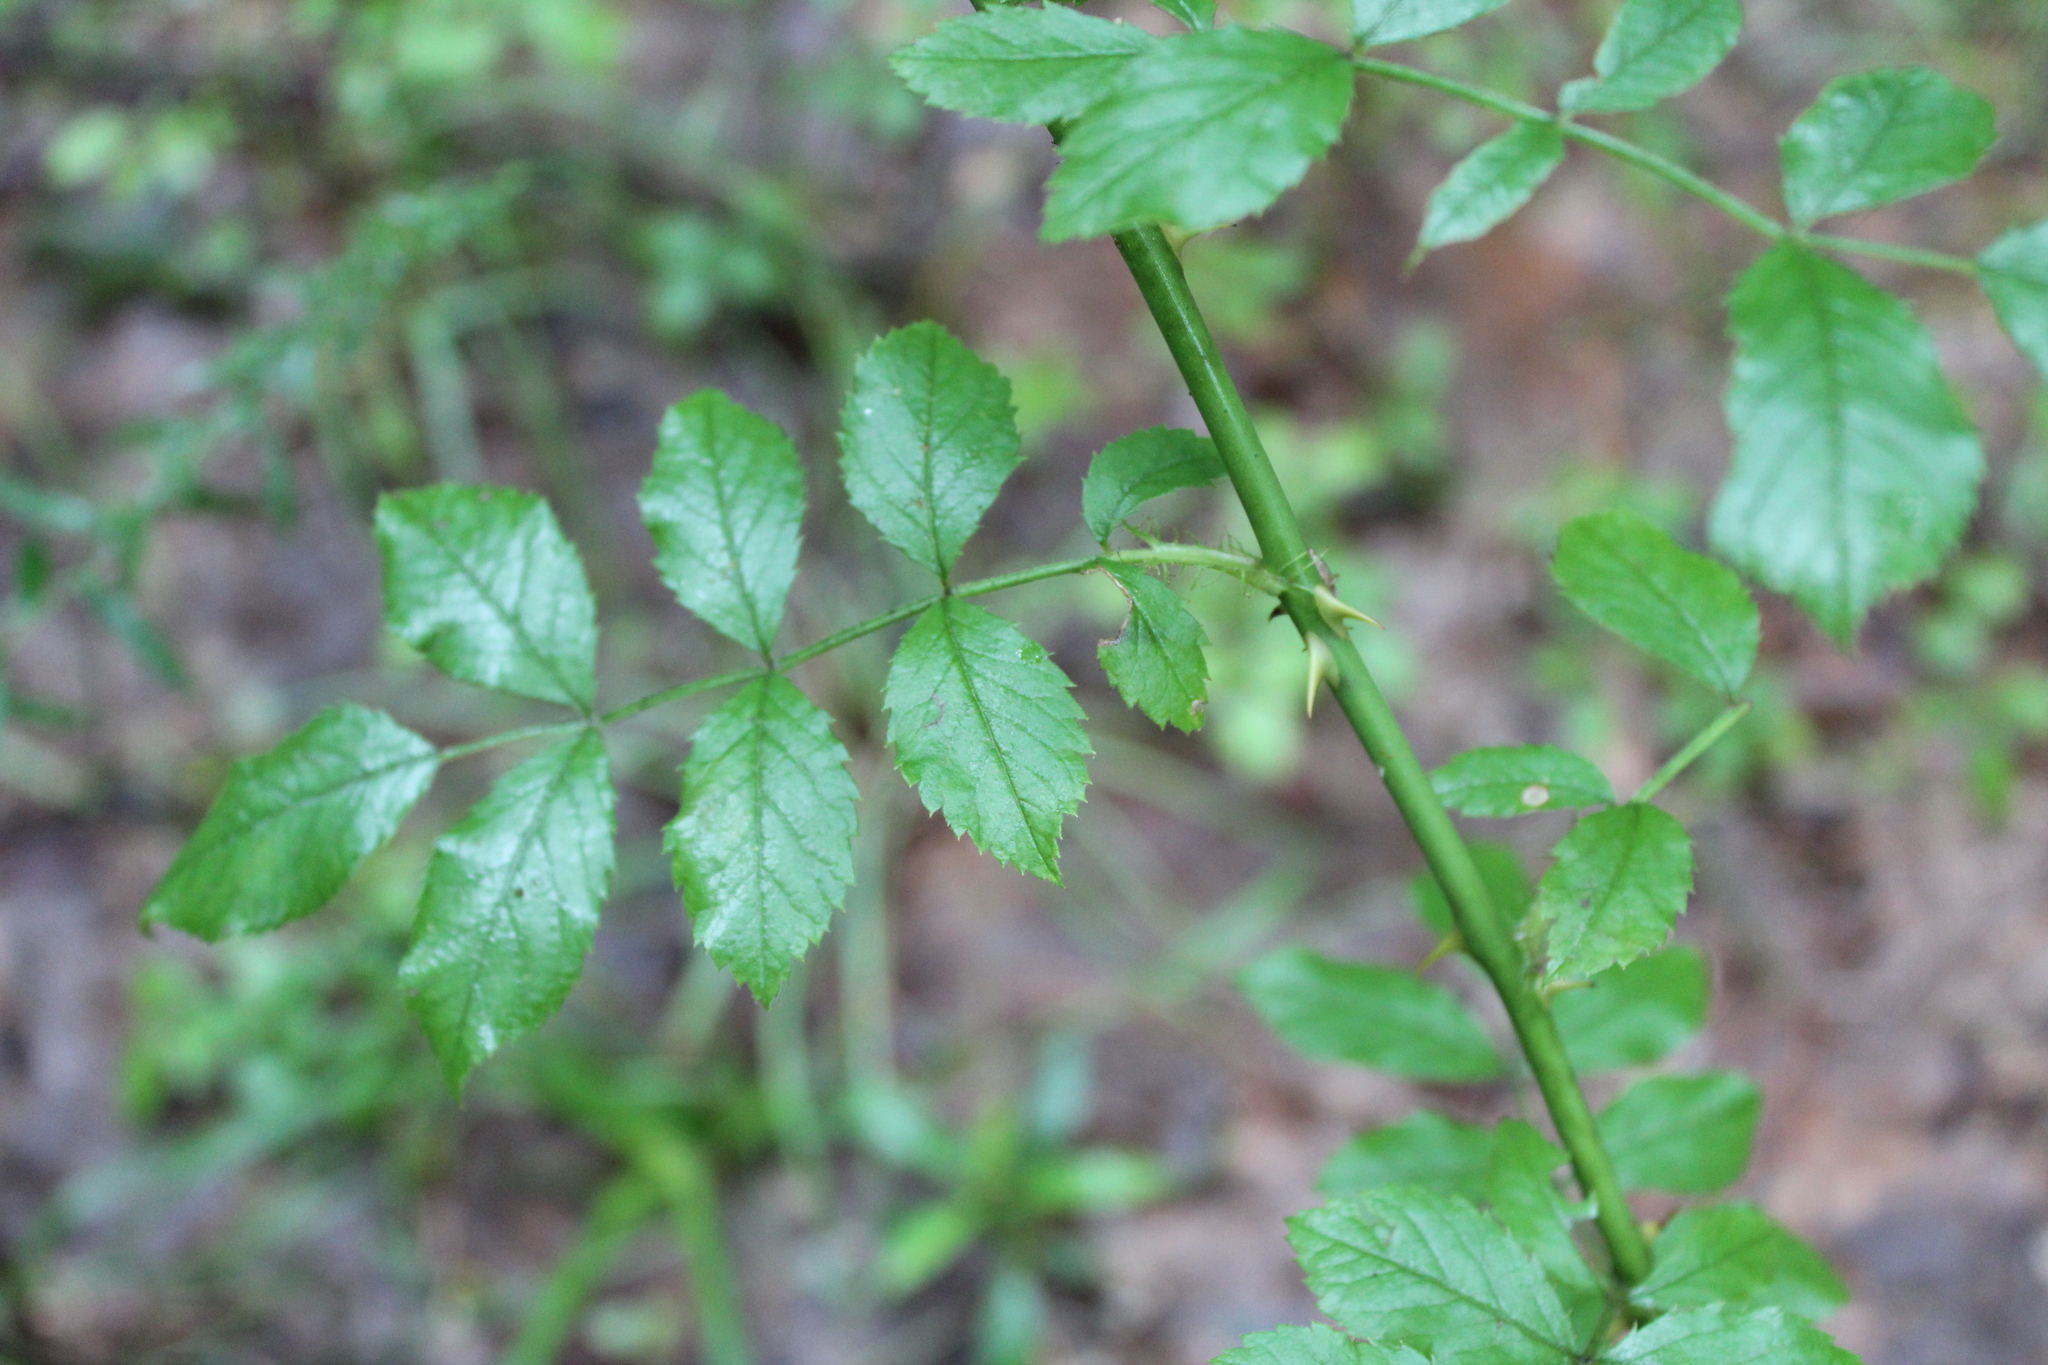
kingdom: Plantae
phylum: Tracheophyta
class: Magnoliopsida
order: Rosales
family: Rosaceae
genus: Rosa
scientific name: Rosa multiflora
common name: Multiflora rose
